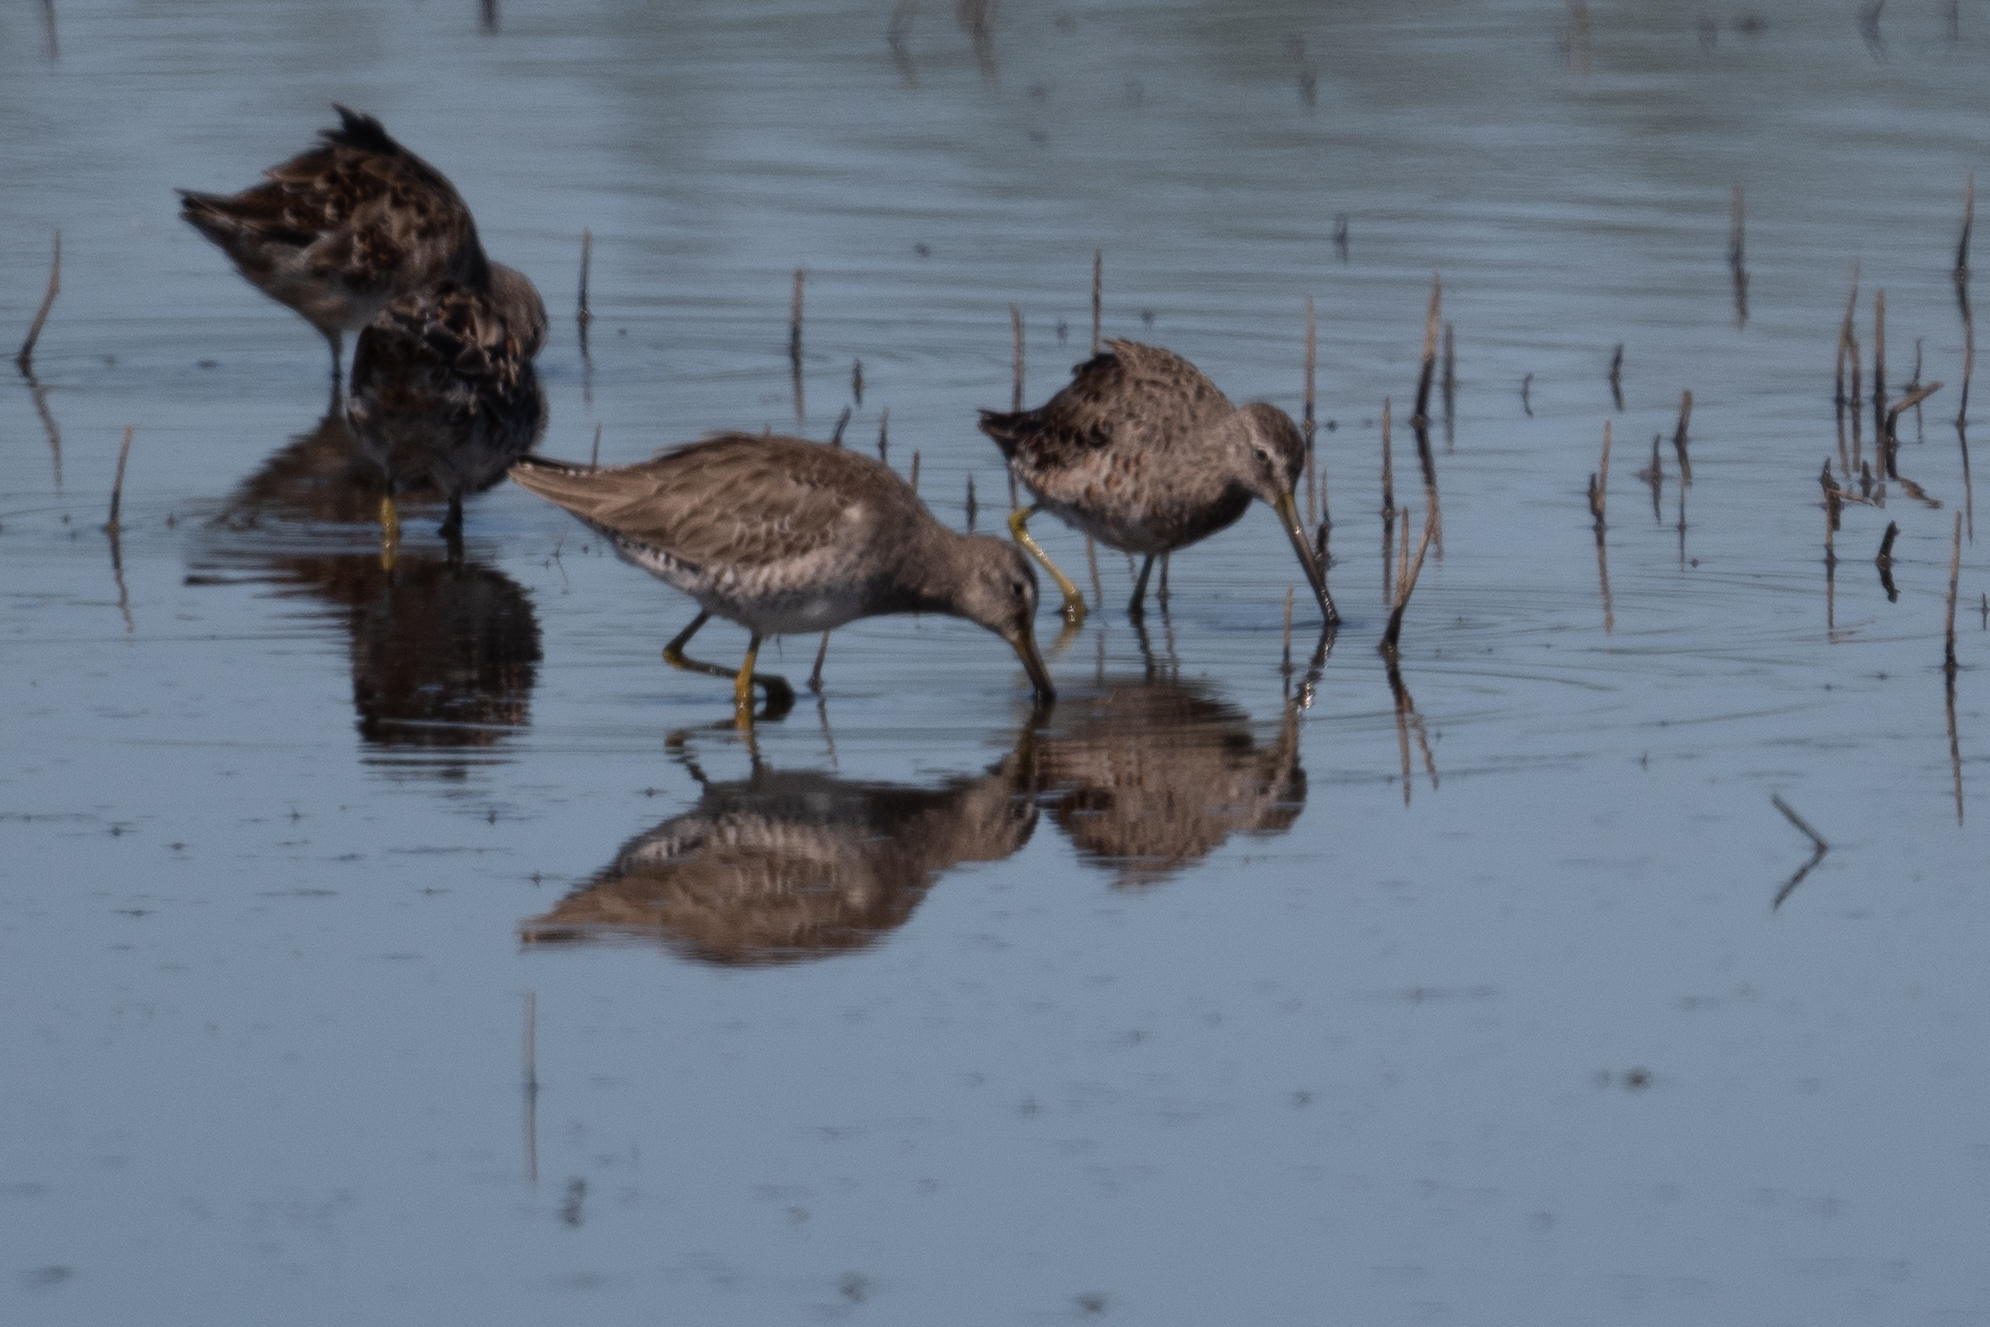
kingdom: Animalia
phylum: Chordata
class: Aves
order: Charadriiformes
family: Scolopacidae
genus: Limnodromus
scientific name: Limnodromus scolopaceus
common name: Long-billed dowitcher
